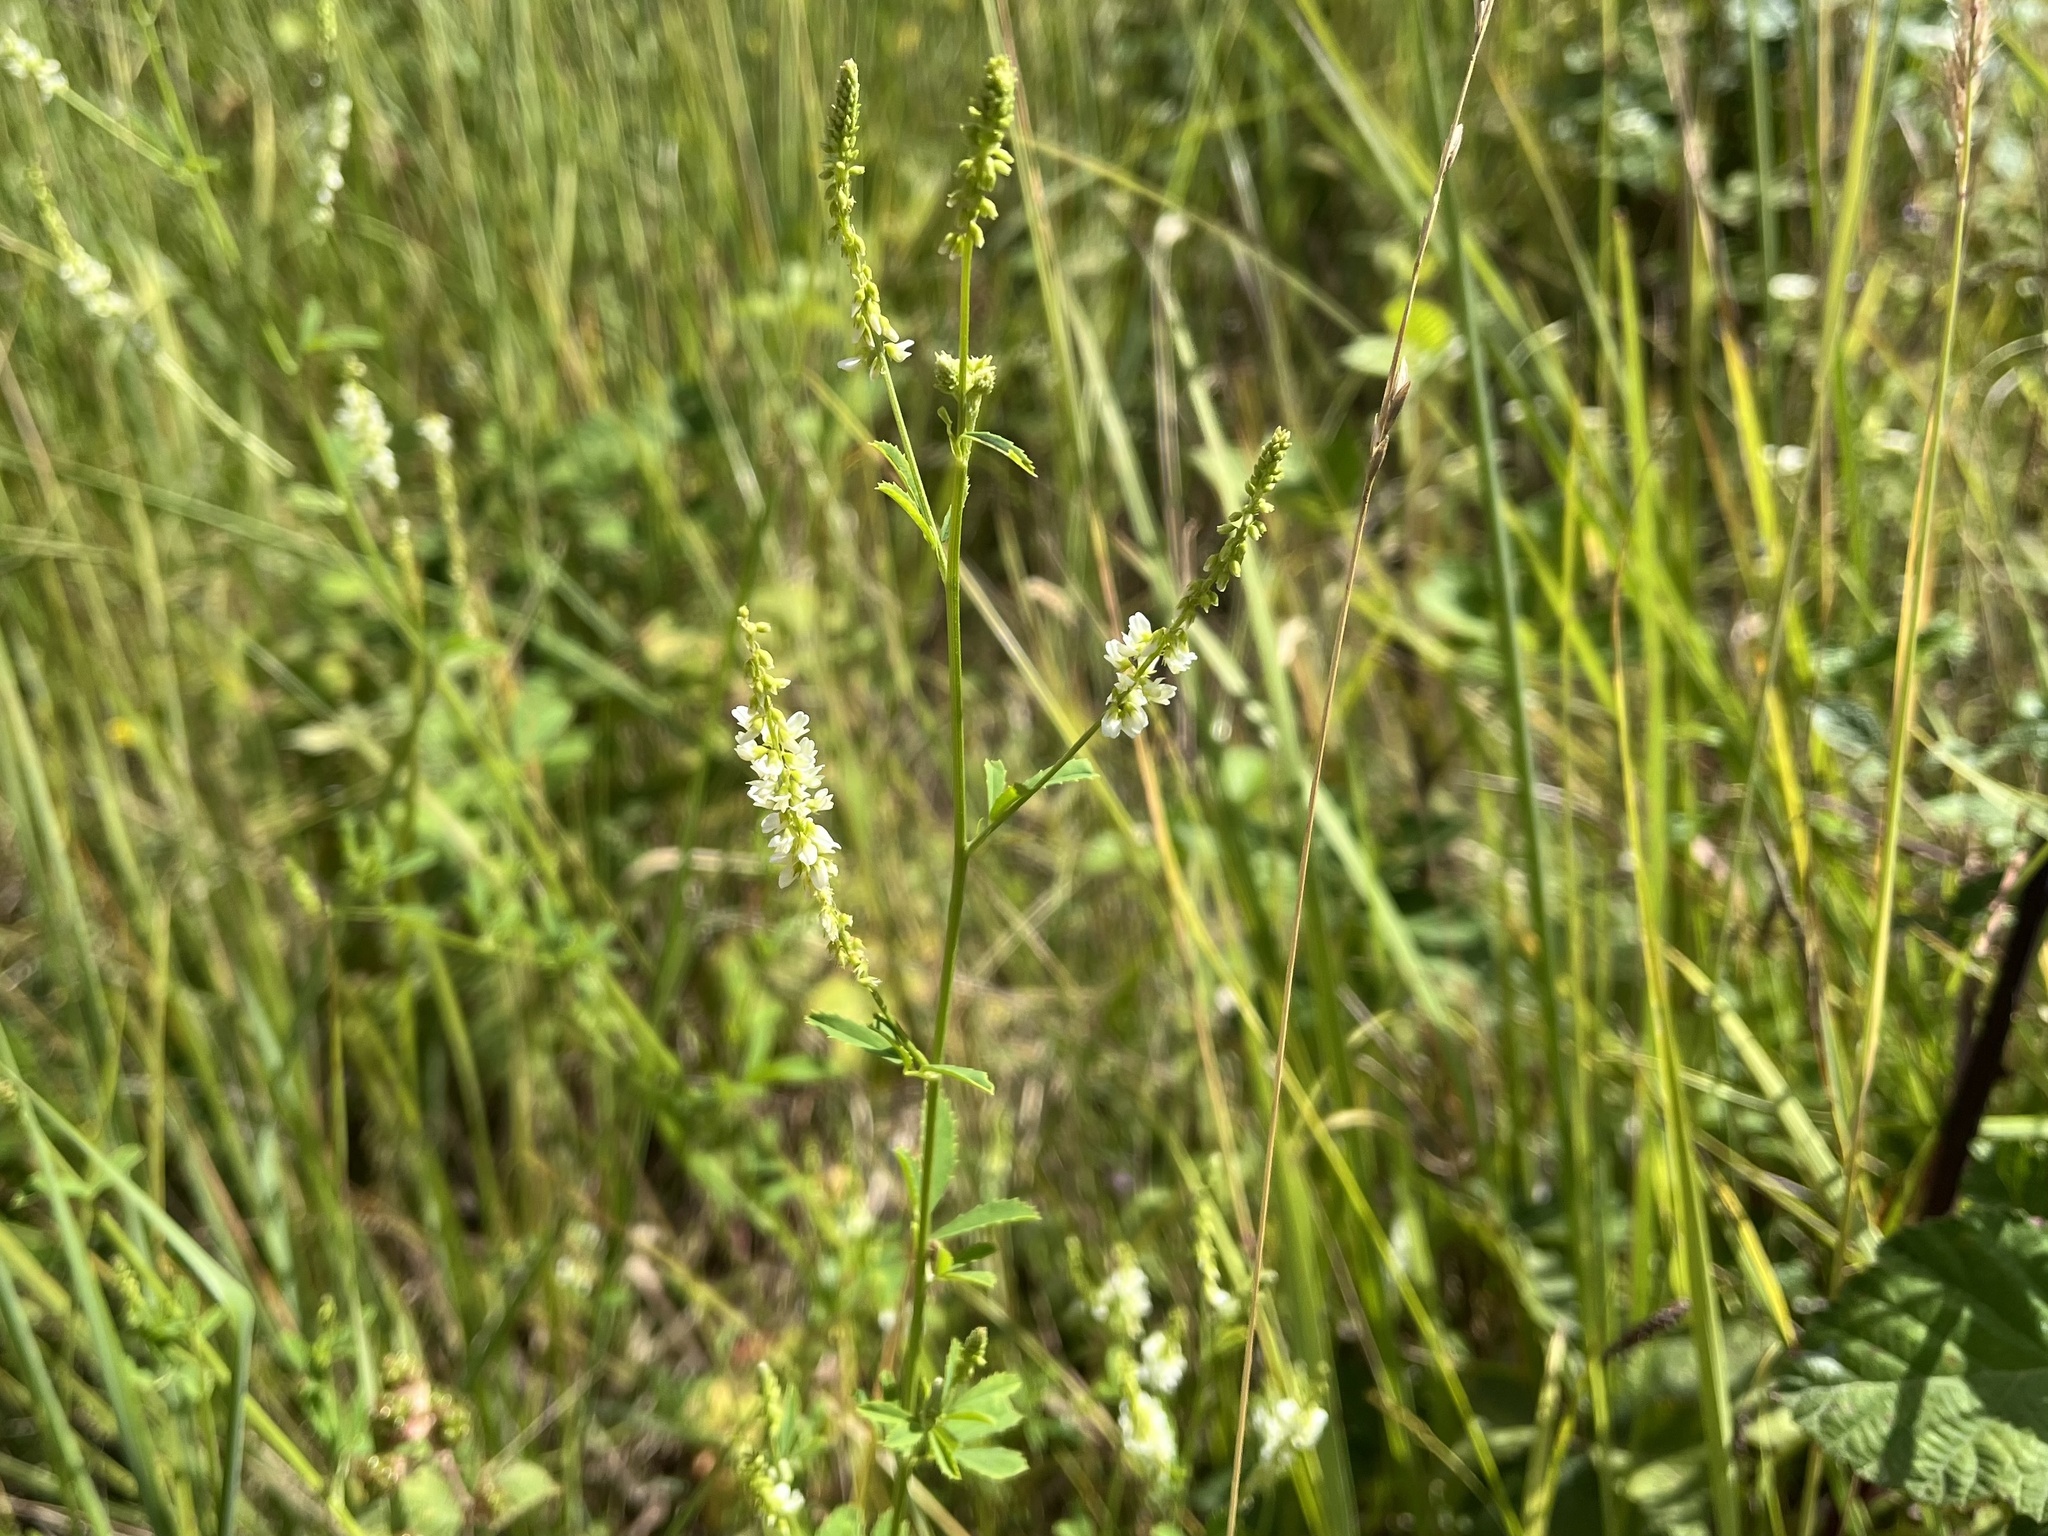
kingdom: Plantae
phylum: Tracheophyta
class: Magnoliopsida
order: Fabales
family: Fabaceae
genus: Melilotus
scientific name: Melilotus albus
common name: White melilot
